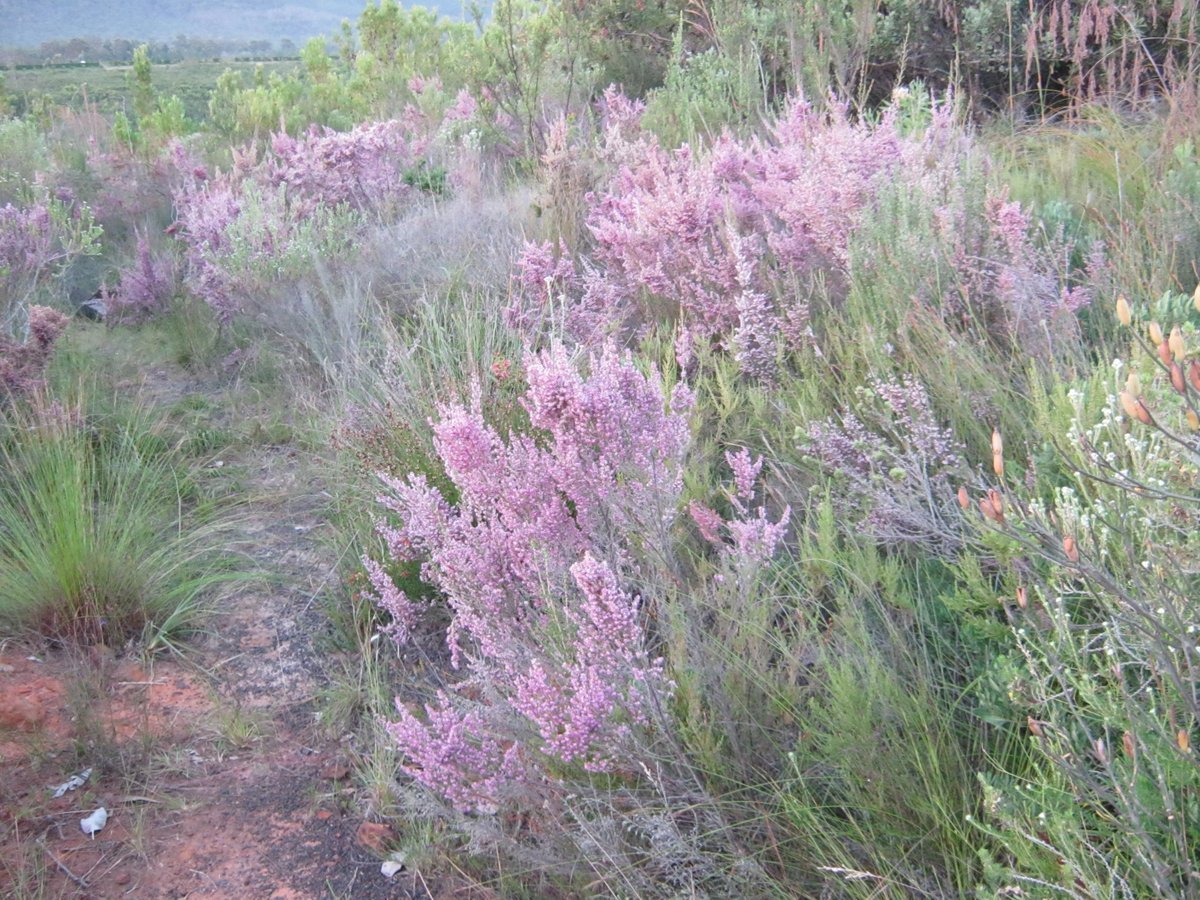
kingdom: Plantae
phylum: Tracheophyta
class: Magnoliopsida
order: Ericales
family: Ericaceae
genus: Erica
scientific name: Erica sparsa
